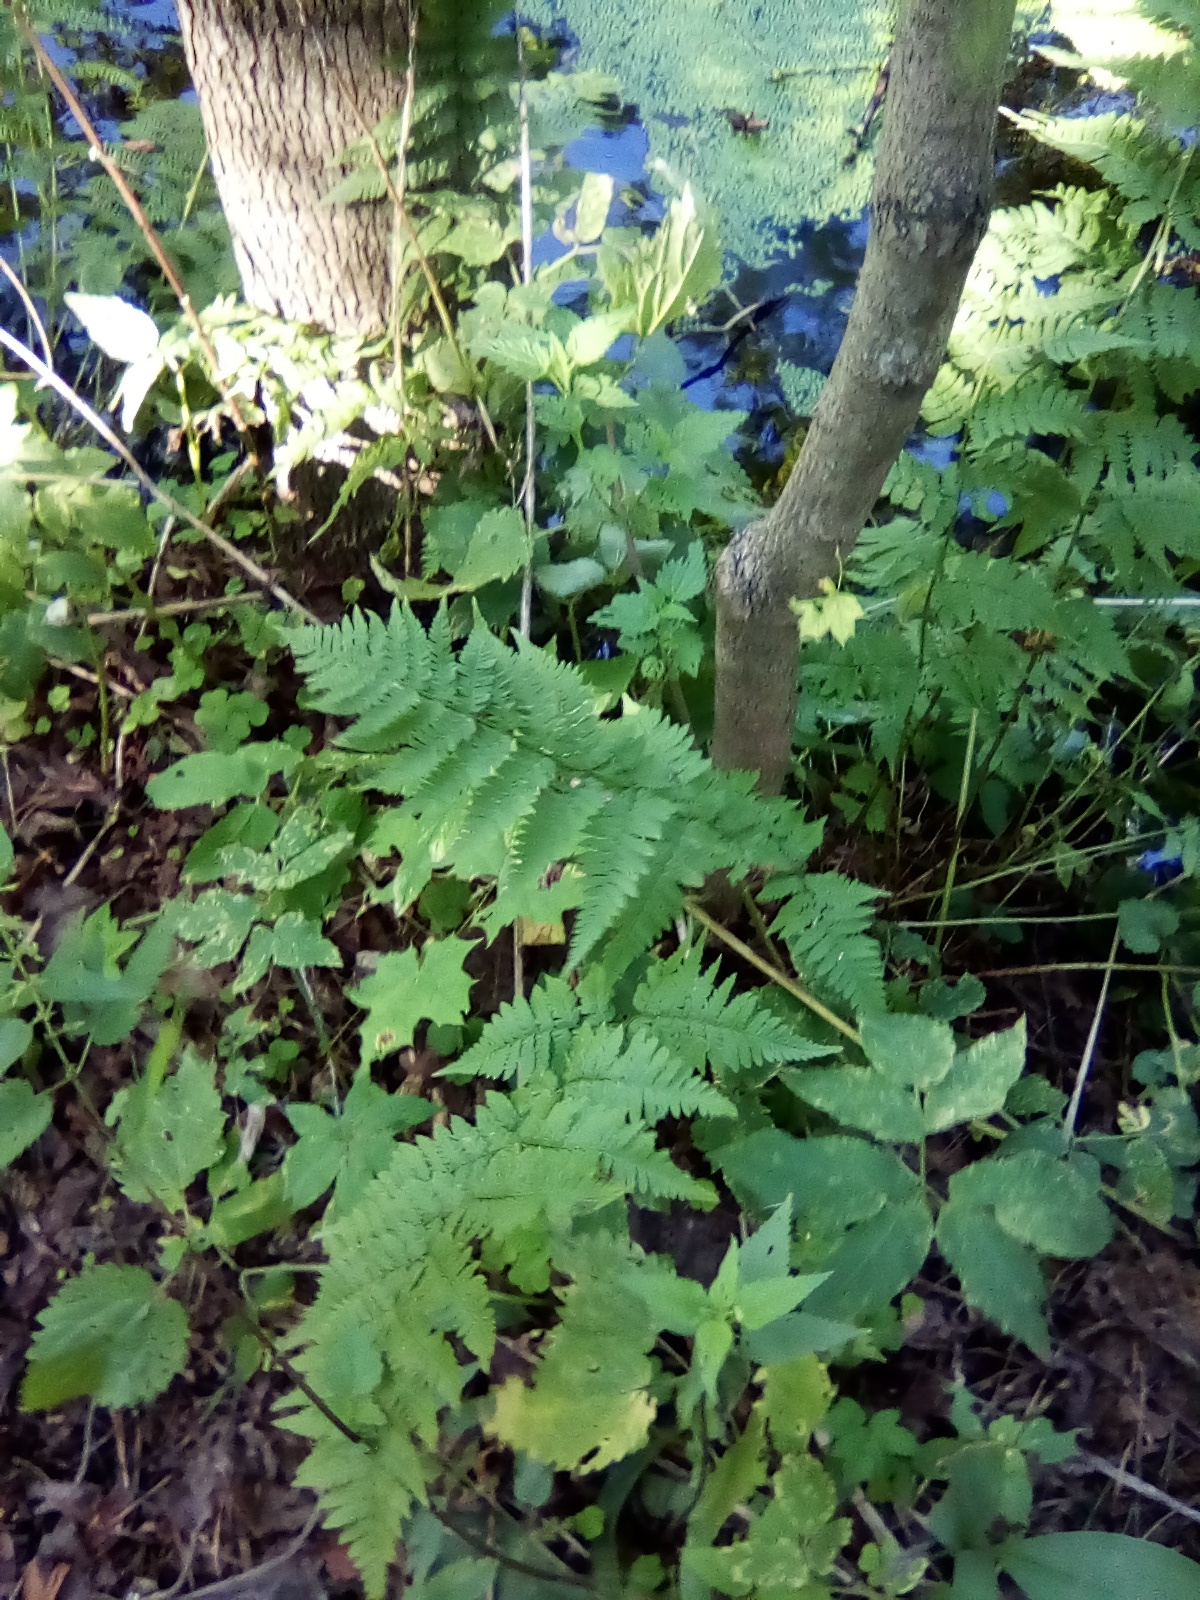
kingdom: Plantae
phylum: Tracheophyta
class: Polypodiopsida
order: Polypodiales
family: Dryopteridaceae
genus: Dryopteris
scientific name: Dryopteris carthusiana
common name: Narrow buckler-fern
